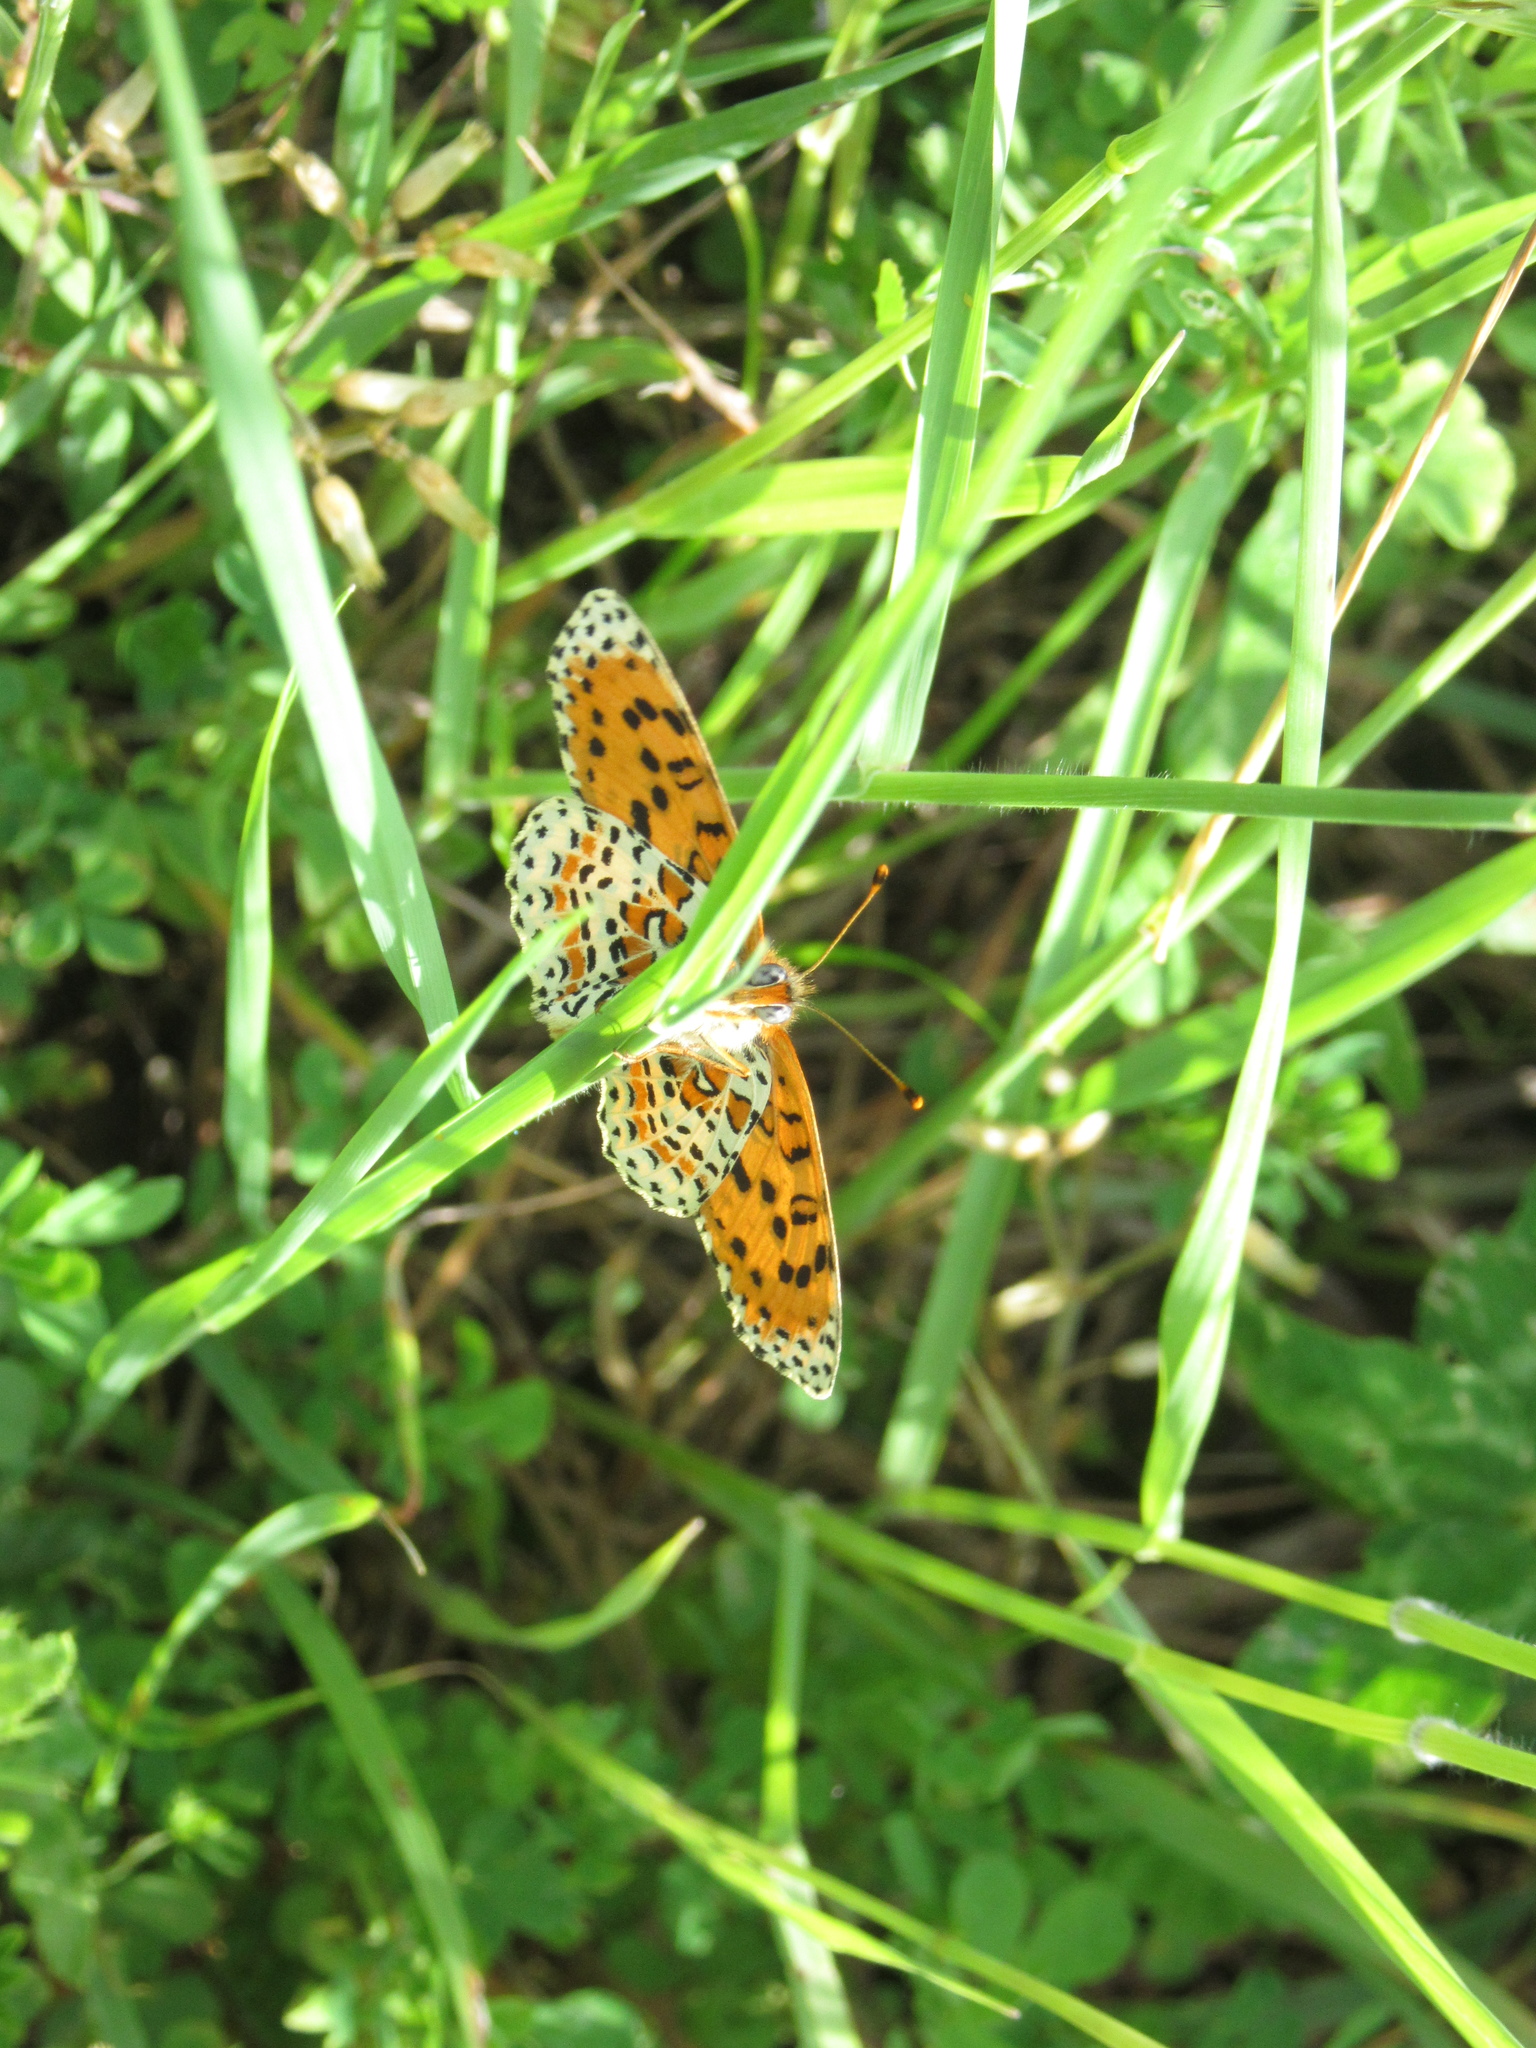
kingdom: Animalia
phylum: Arthropoda
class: Insecta
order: Lepidoptera
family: Nymphalidae
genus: Melitaea
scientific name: Melitaea didyma
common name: Spotted fritillary
